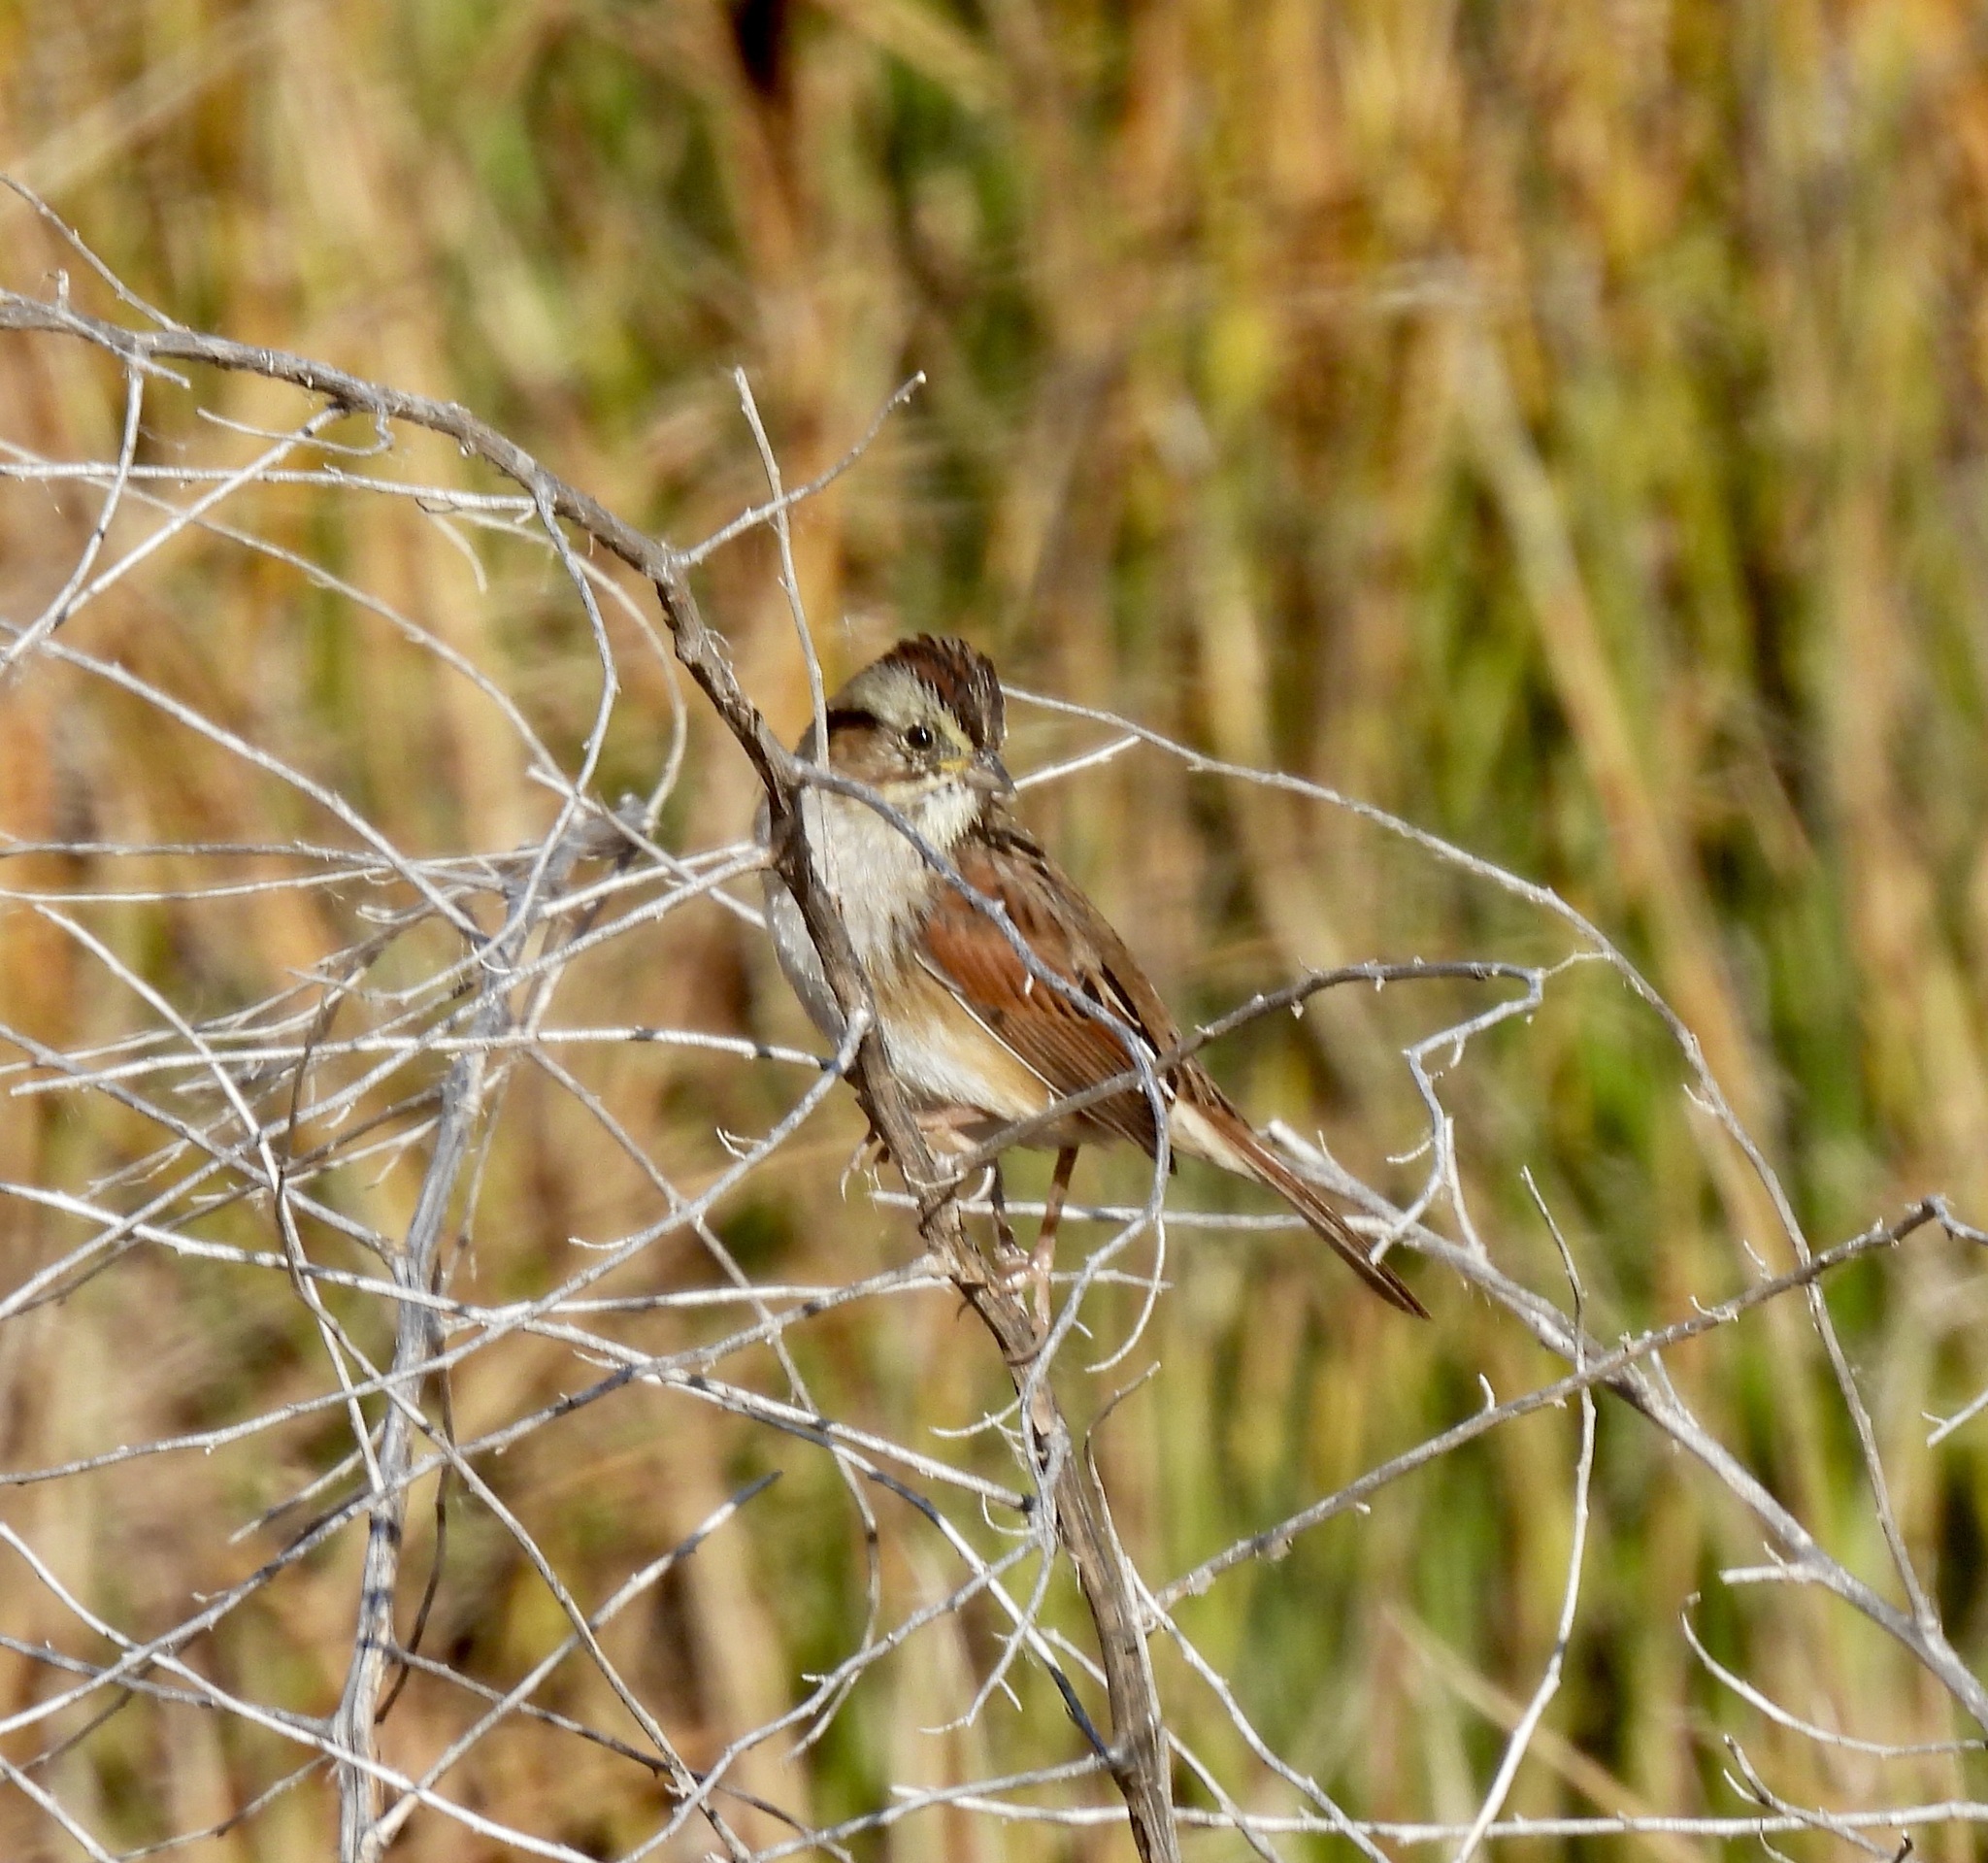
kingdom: Animalia
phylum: Chordata
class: Aves
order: Passeriformes
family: Passerellidae
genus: Melospiza
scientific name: Melospiza georgiana
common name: Swamp sparrow
